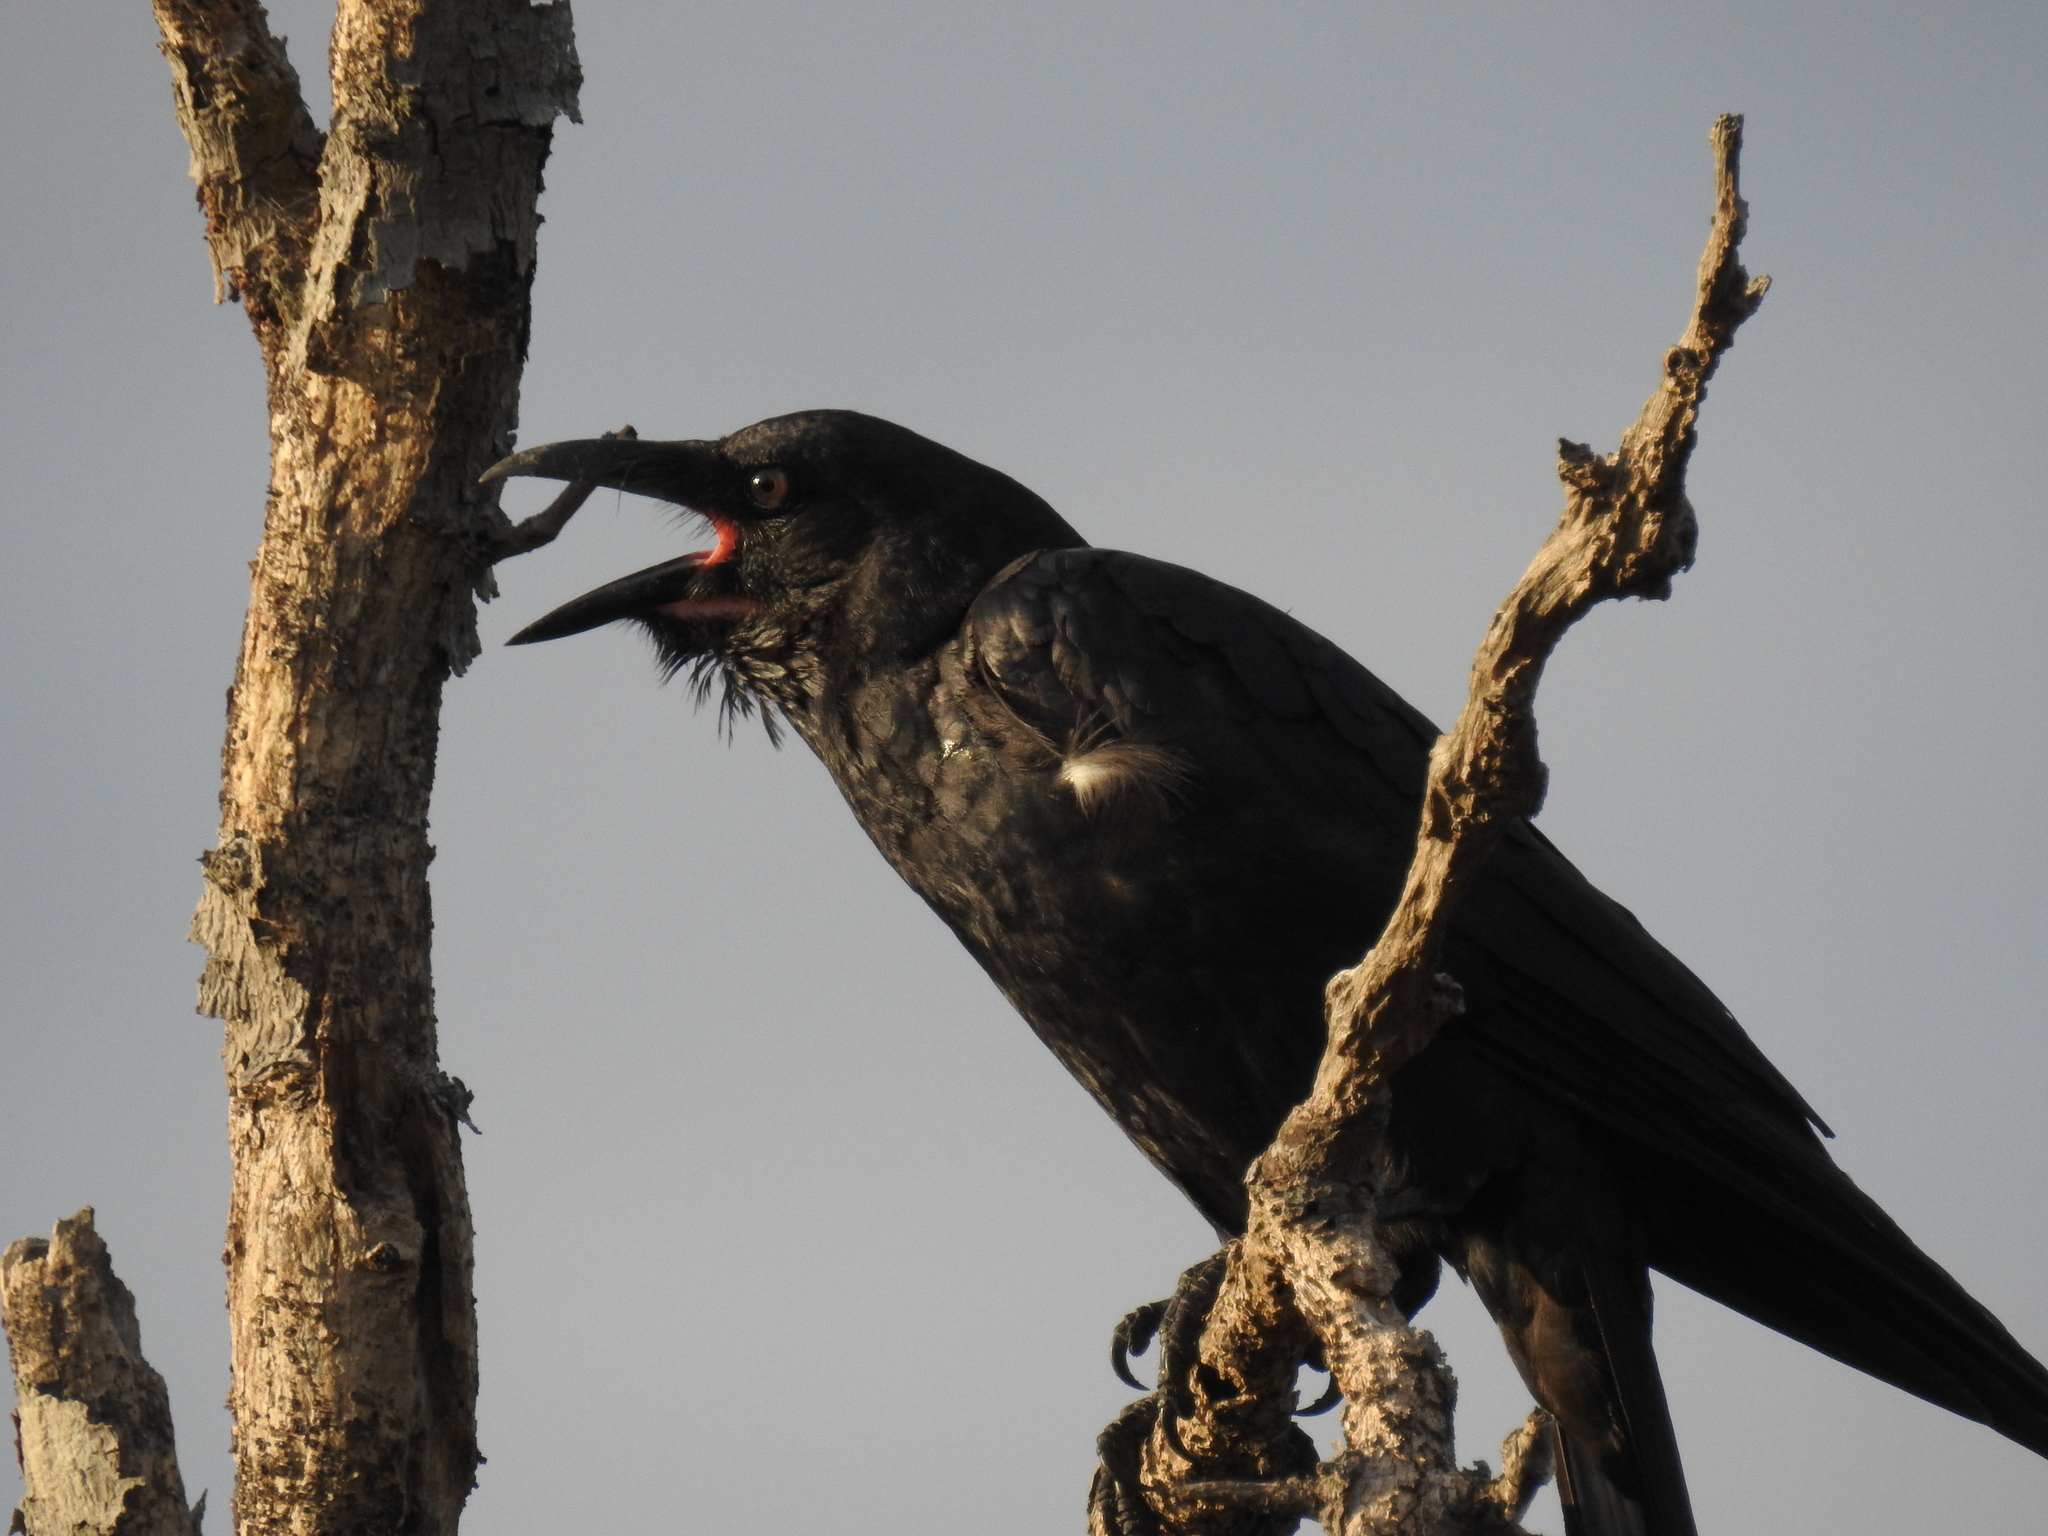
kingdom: Animalia
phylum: Chordata
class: Aves
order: Passeriformes
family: Corvidae
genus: Corvus
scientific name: Corvus orru
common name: Torresian crow
